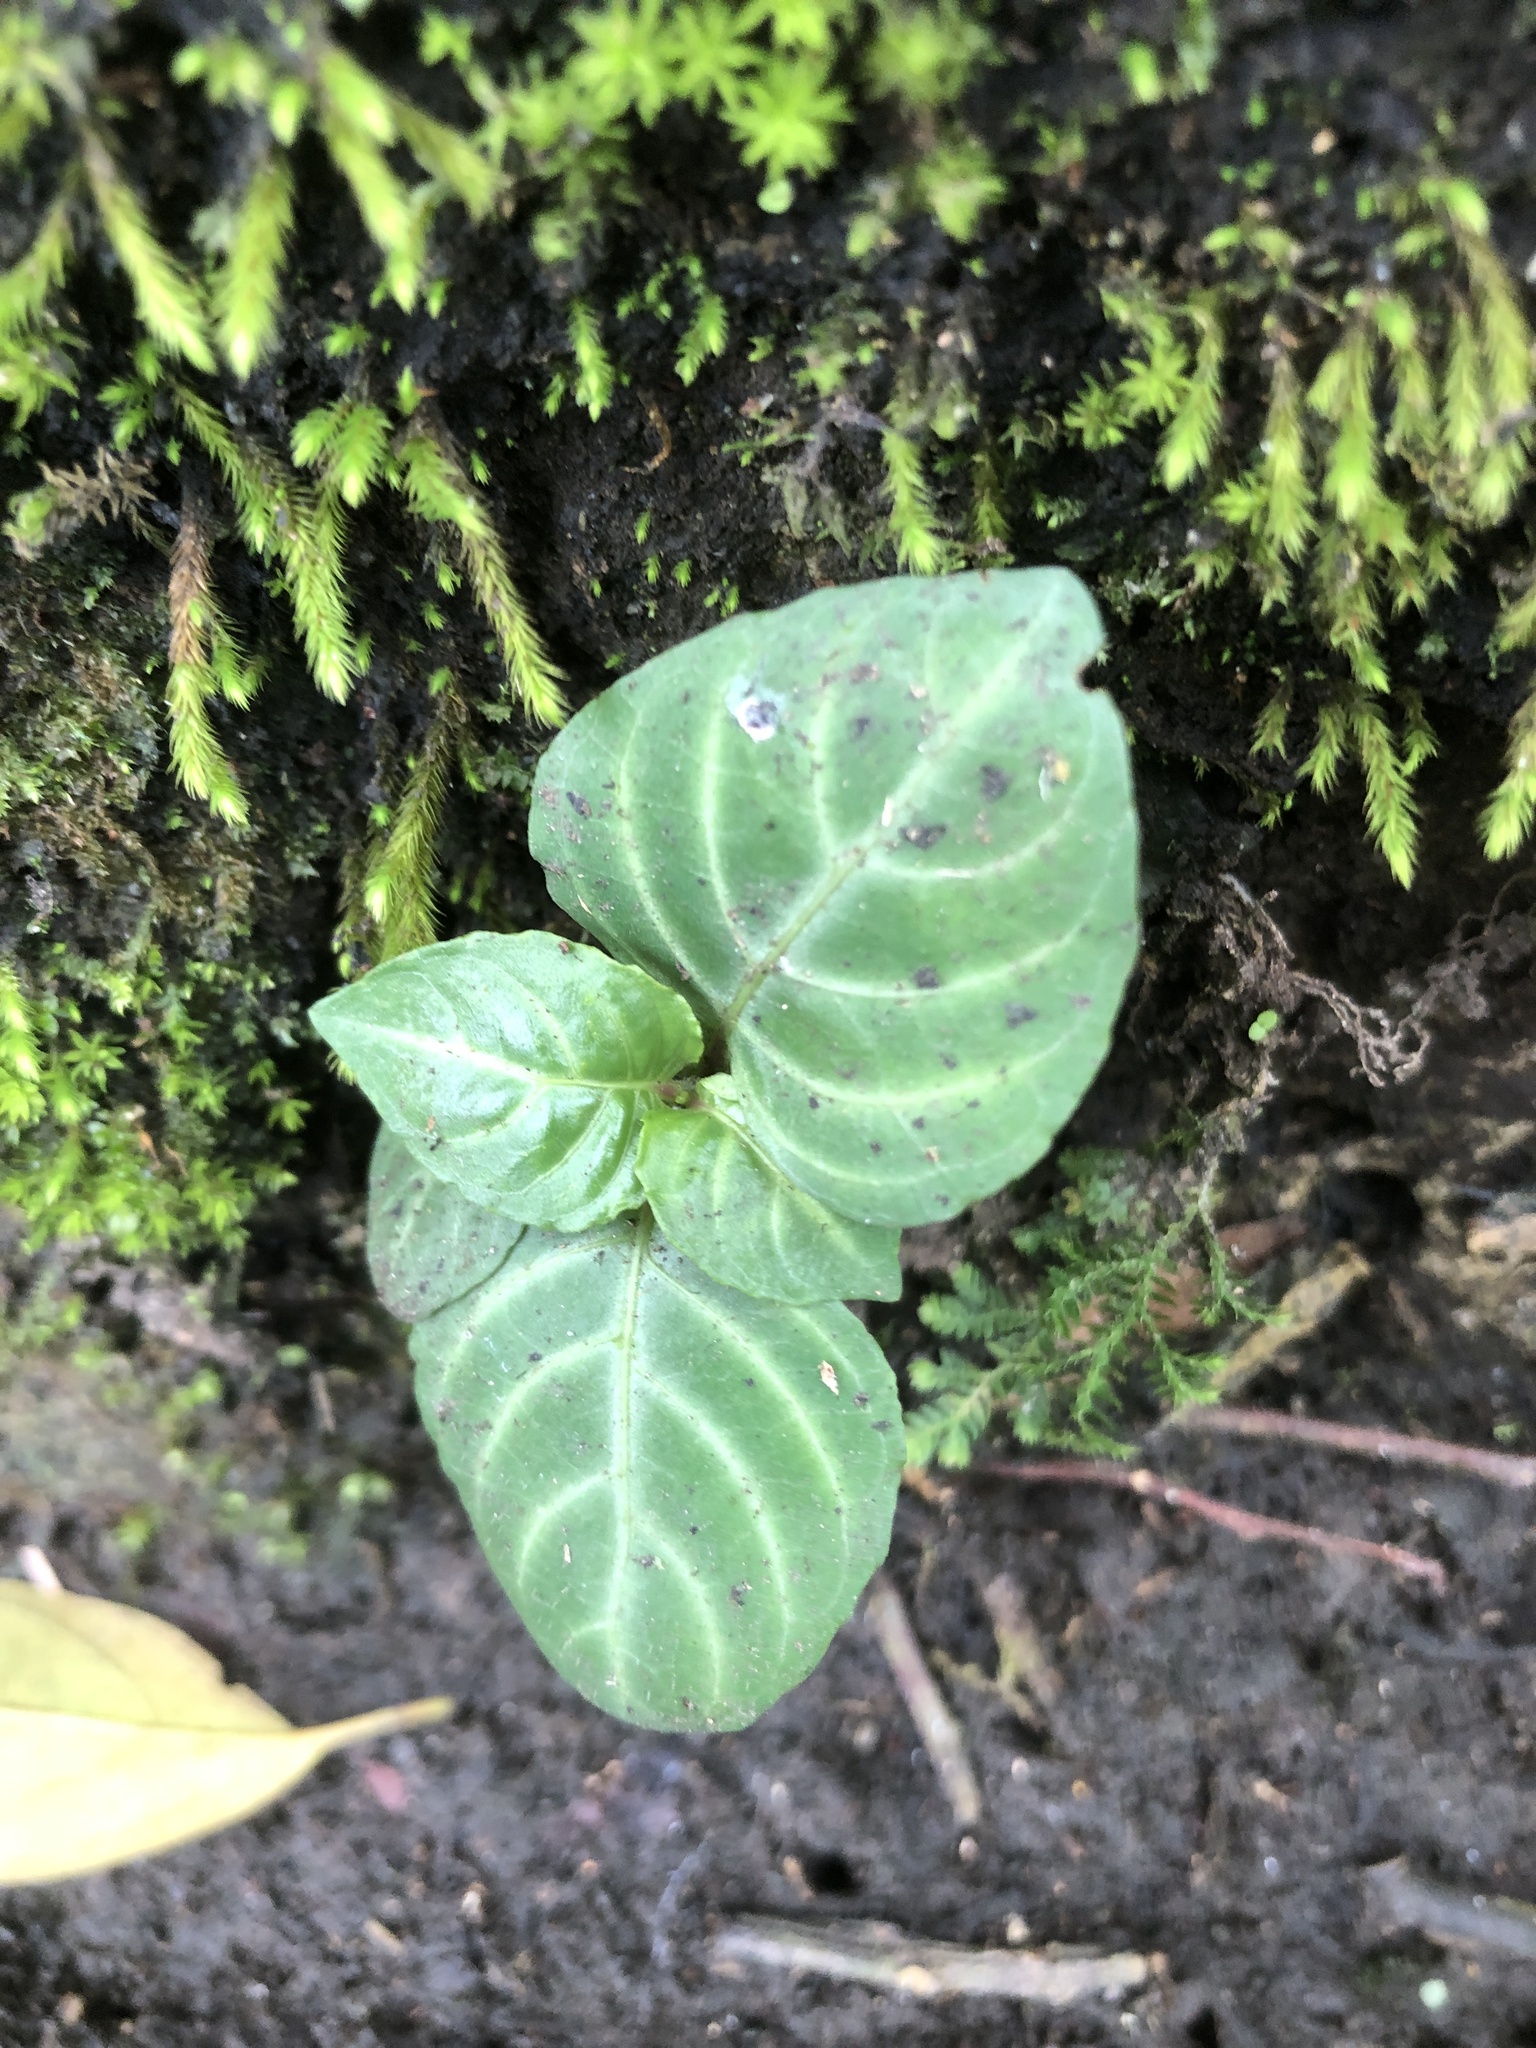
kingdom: Plantae
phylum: Tracheophyta
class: Magnoliopsida
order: Lamiales
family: Acanthaceae
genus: Lepidagathis
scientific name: Lepidagathis inaequalis
